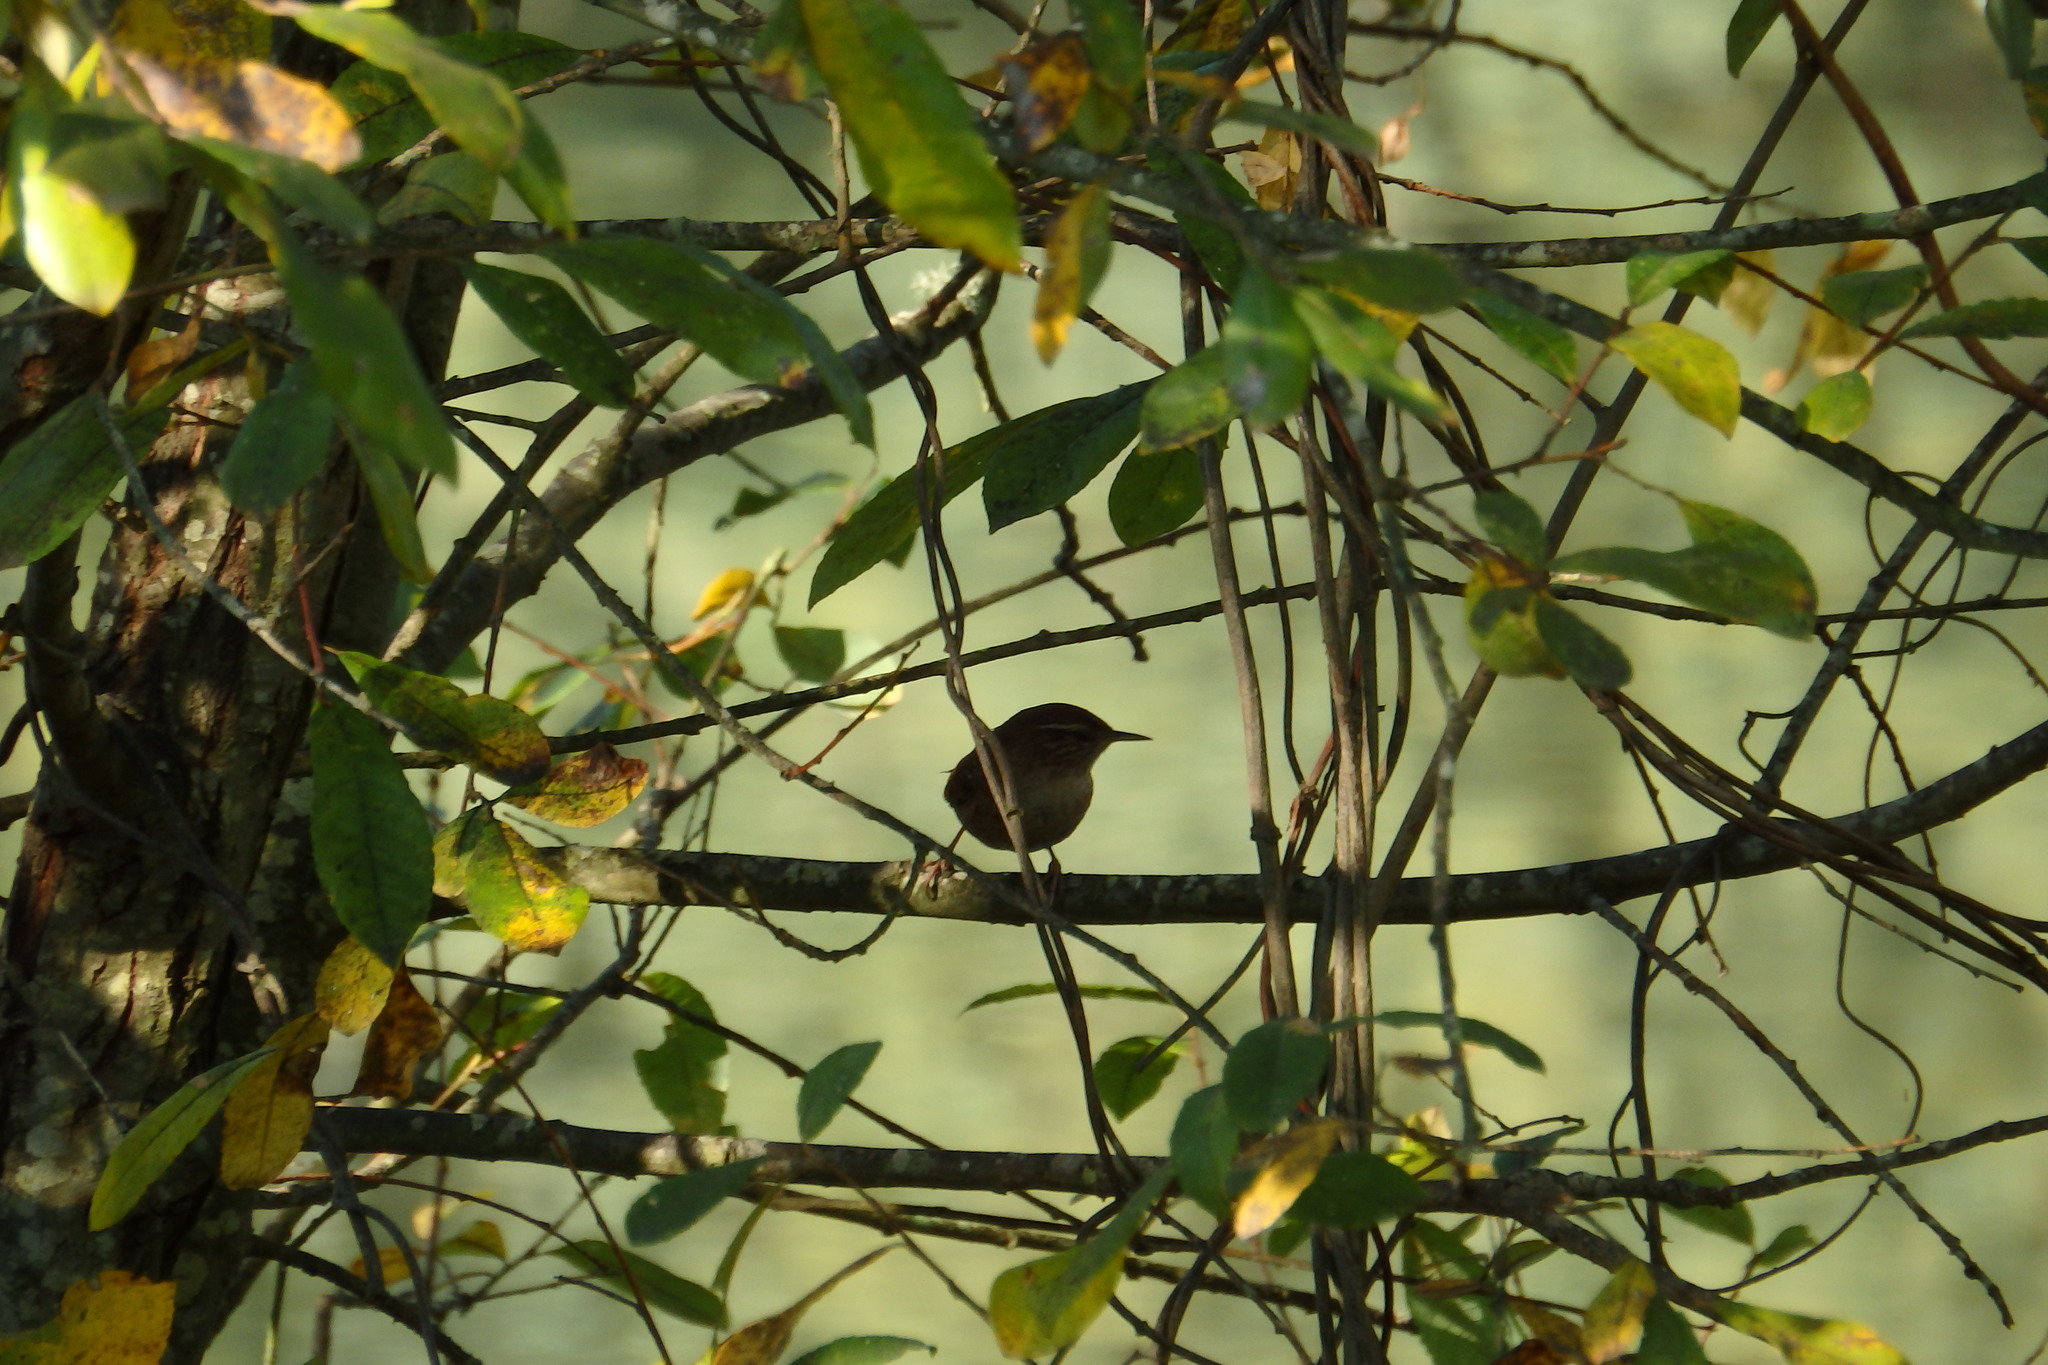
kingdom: Animalia
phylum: Chordata
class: Aves
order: Passeriformes
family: Troglodytidae
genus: Troglodytes
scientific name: Troglodytes troglodytes
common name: Eurasian wren
